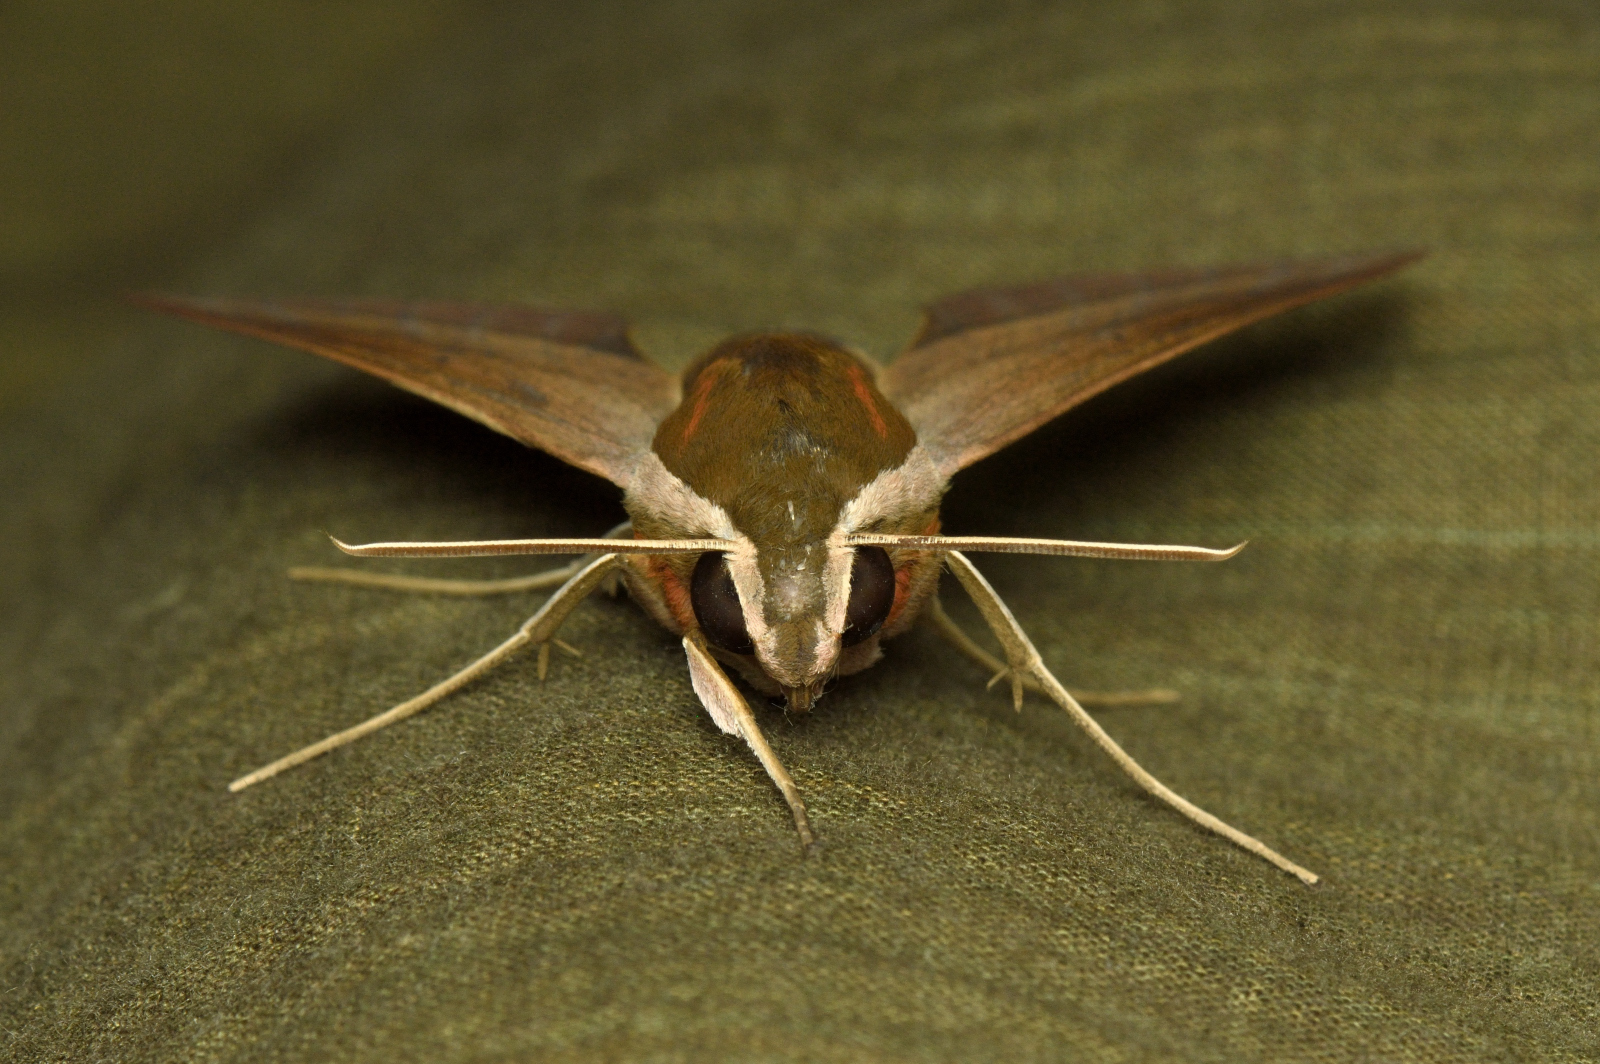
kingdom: Animalia
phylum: Arthropoda
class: Insecta
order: Lepidoptera
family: Sphingidae
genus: Theretra
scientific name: Theretra alecto
